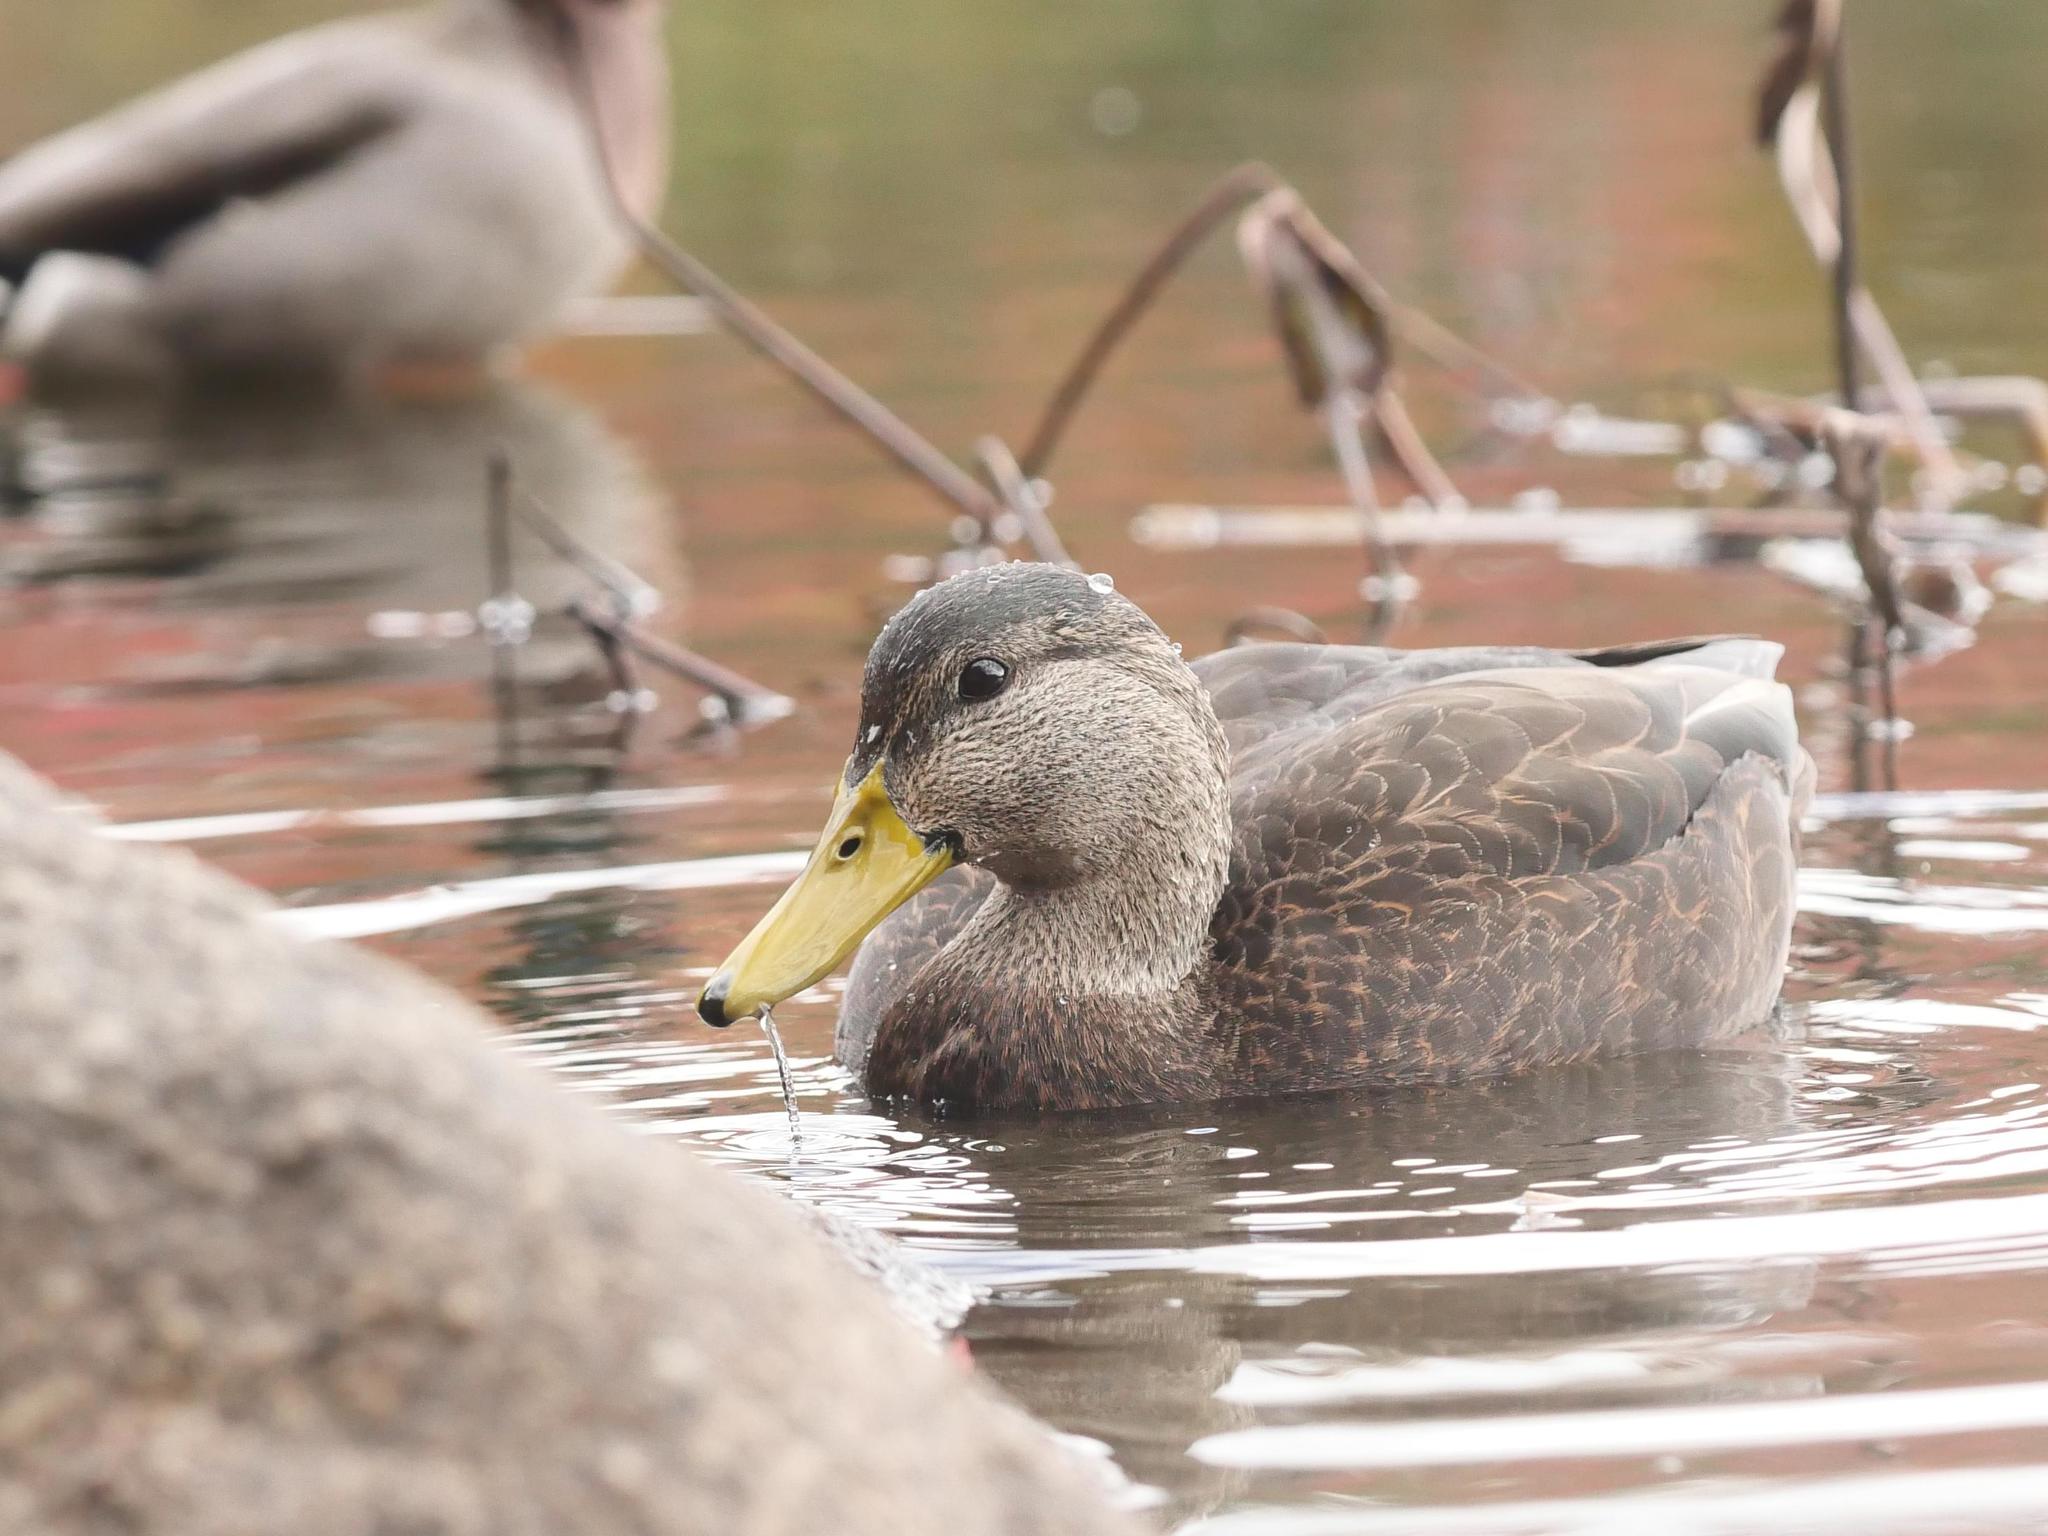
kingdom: Animalia
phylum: Chordata
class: Aves
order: Anseriformes
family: Anatidae
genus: Anas
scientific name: Anas rubripes
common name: American black duck
